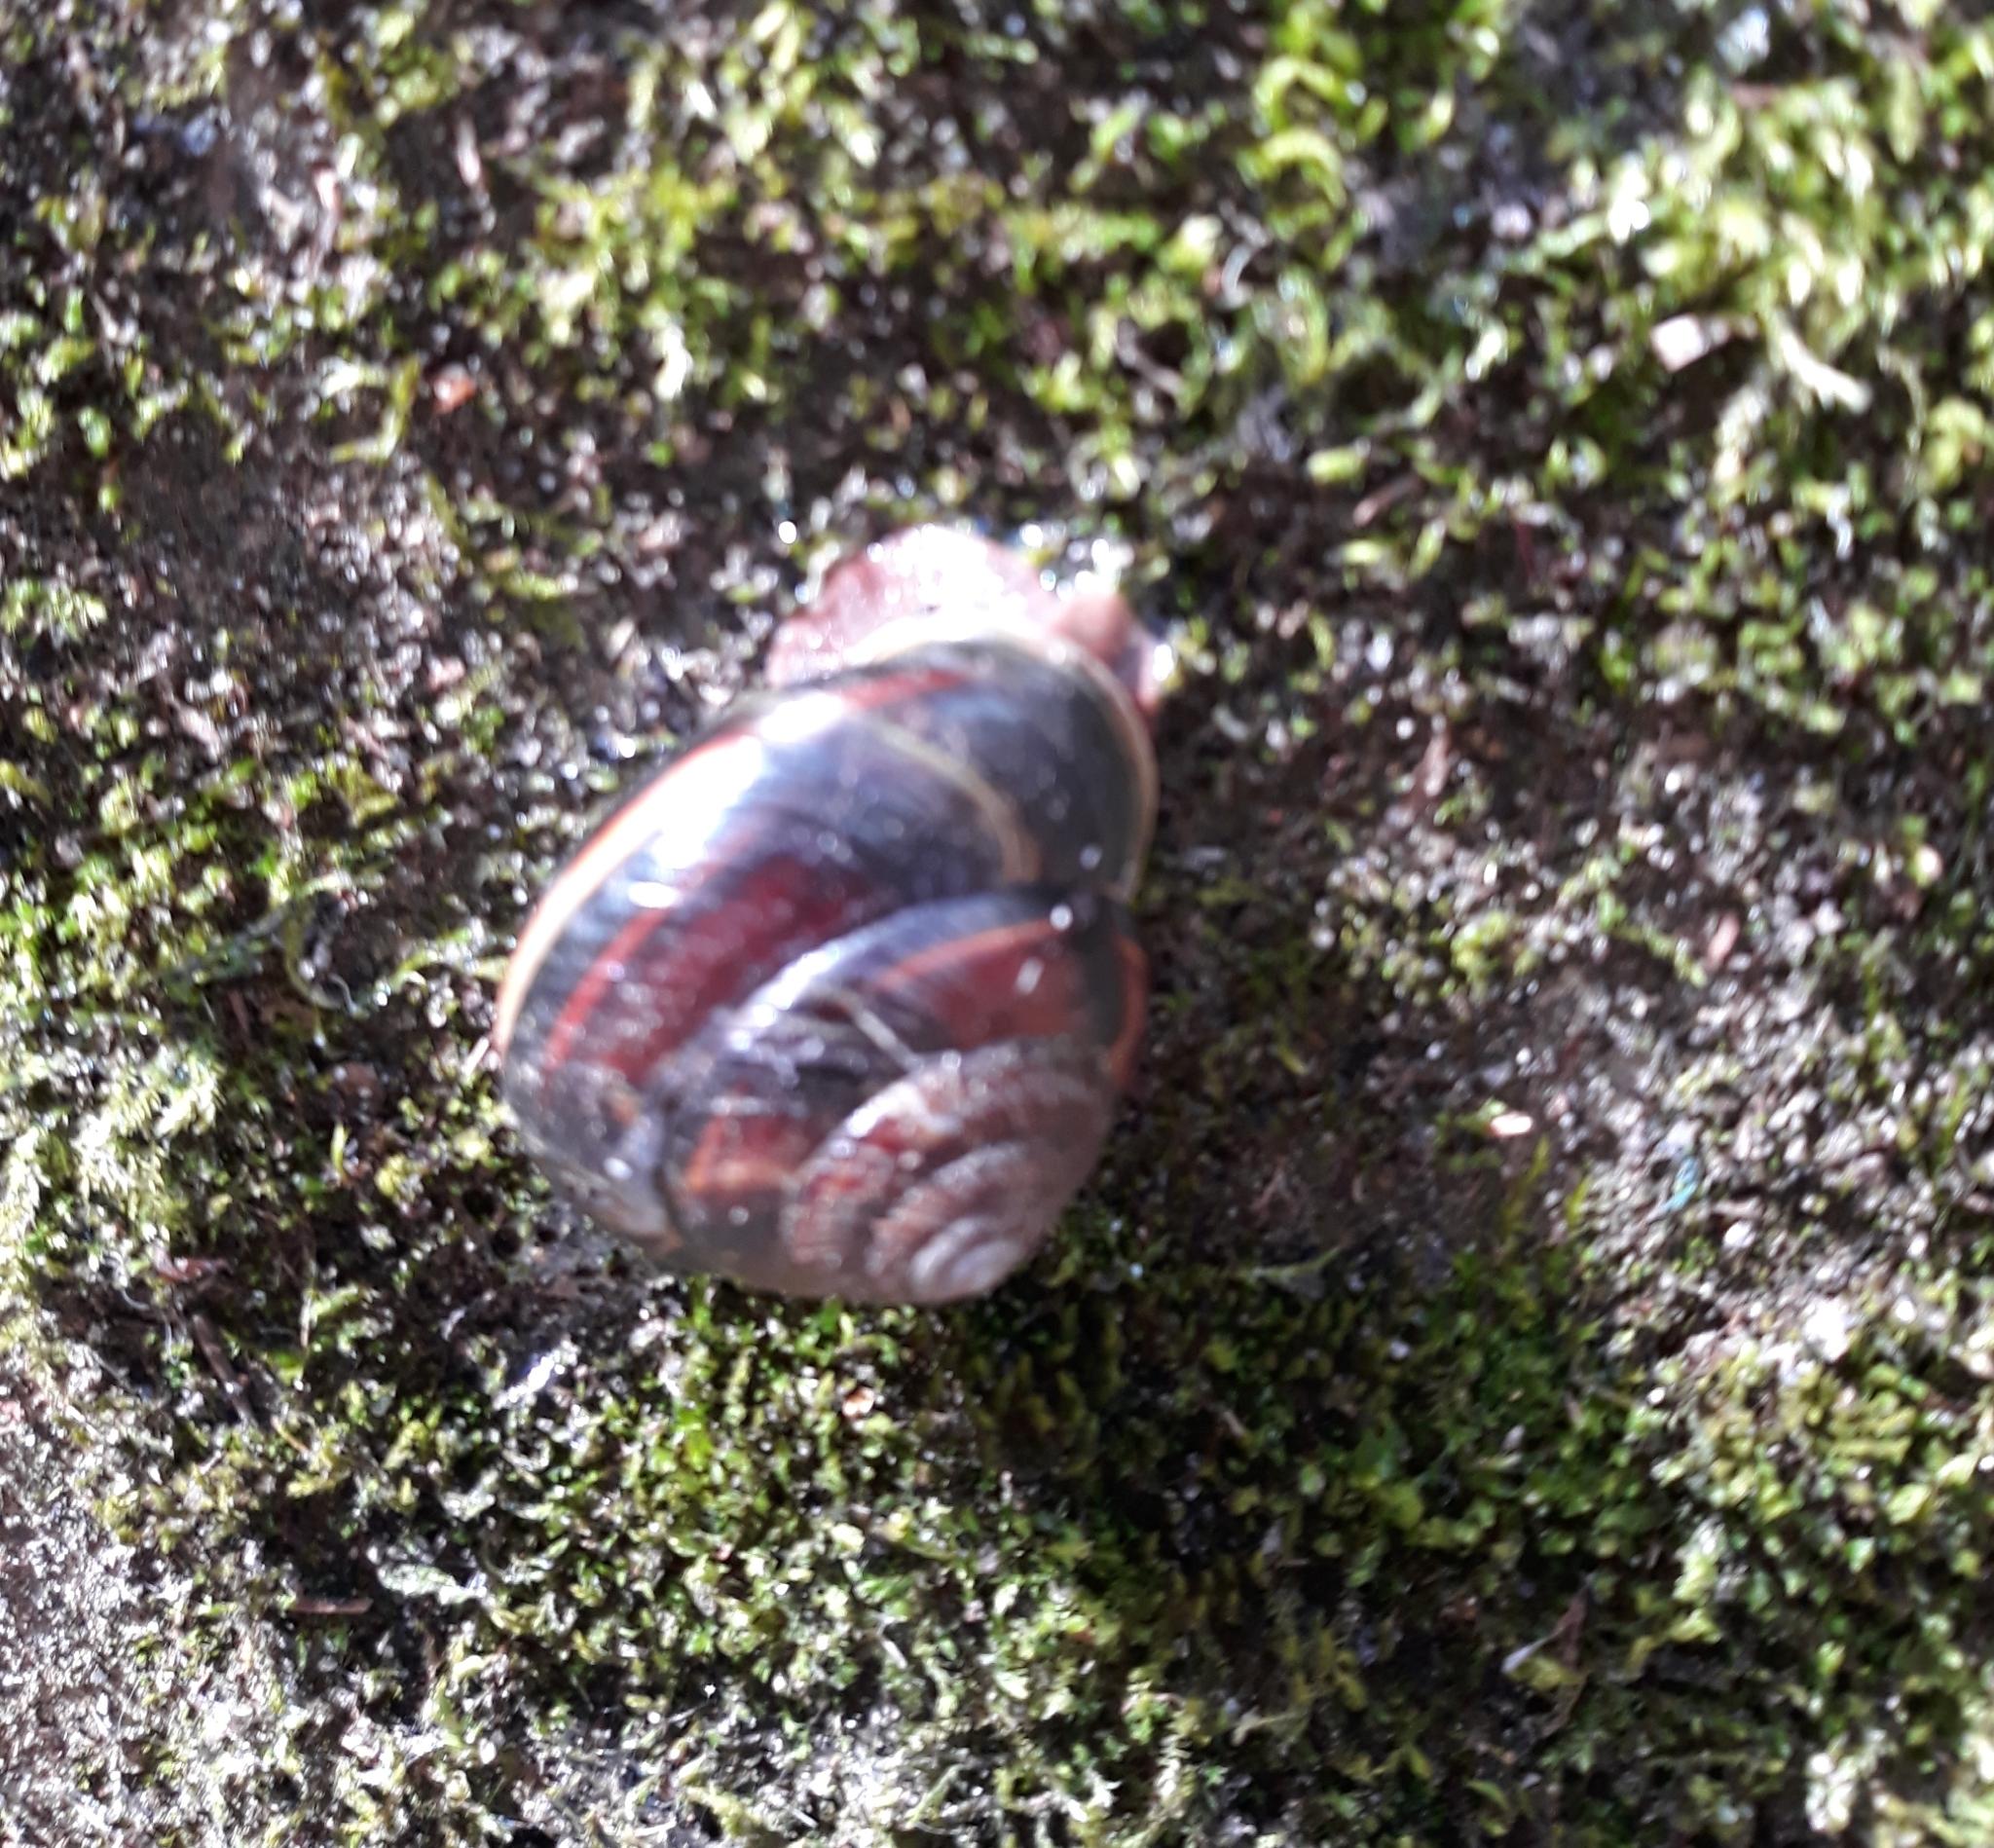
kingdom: Animalia
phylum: Mollusca
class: Gastropoda
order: Stylommatophora
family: Xanthonychidae
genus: Monadenia
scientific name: Monadenia fidelis
